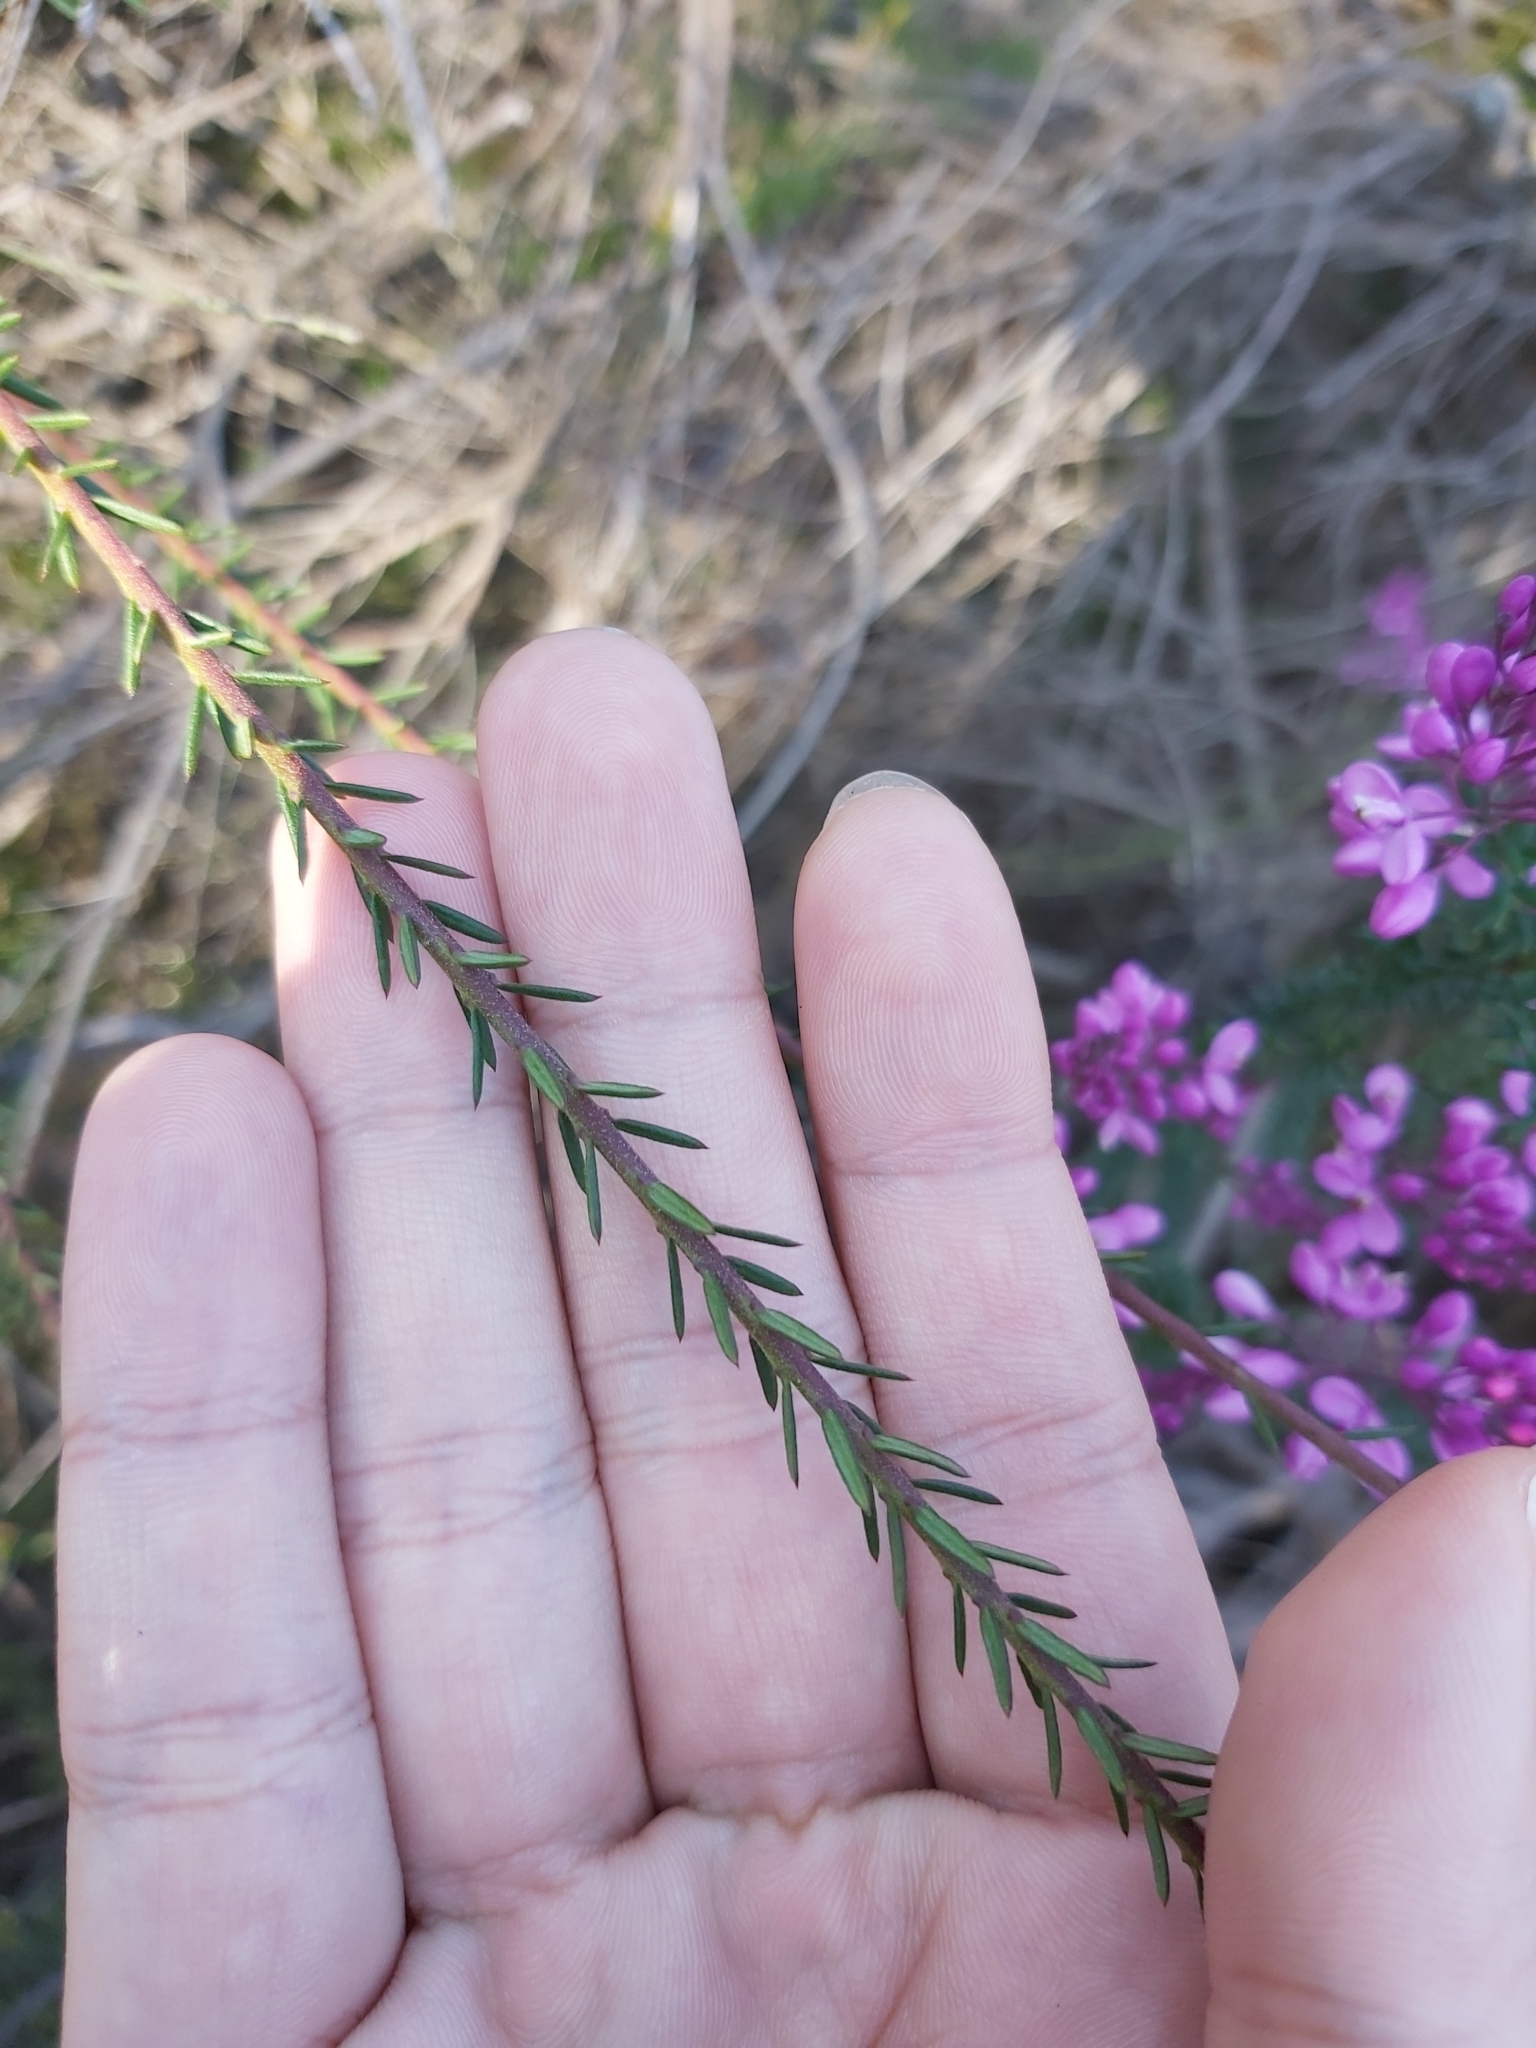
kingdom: Plantae
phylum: Tracheophyta
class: Magnoliopsida
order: Fabales
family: Polygalaceae
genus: Comesperma
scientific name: Comesperma ericinum
